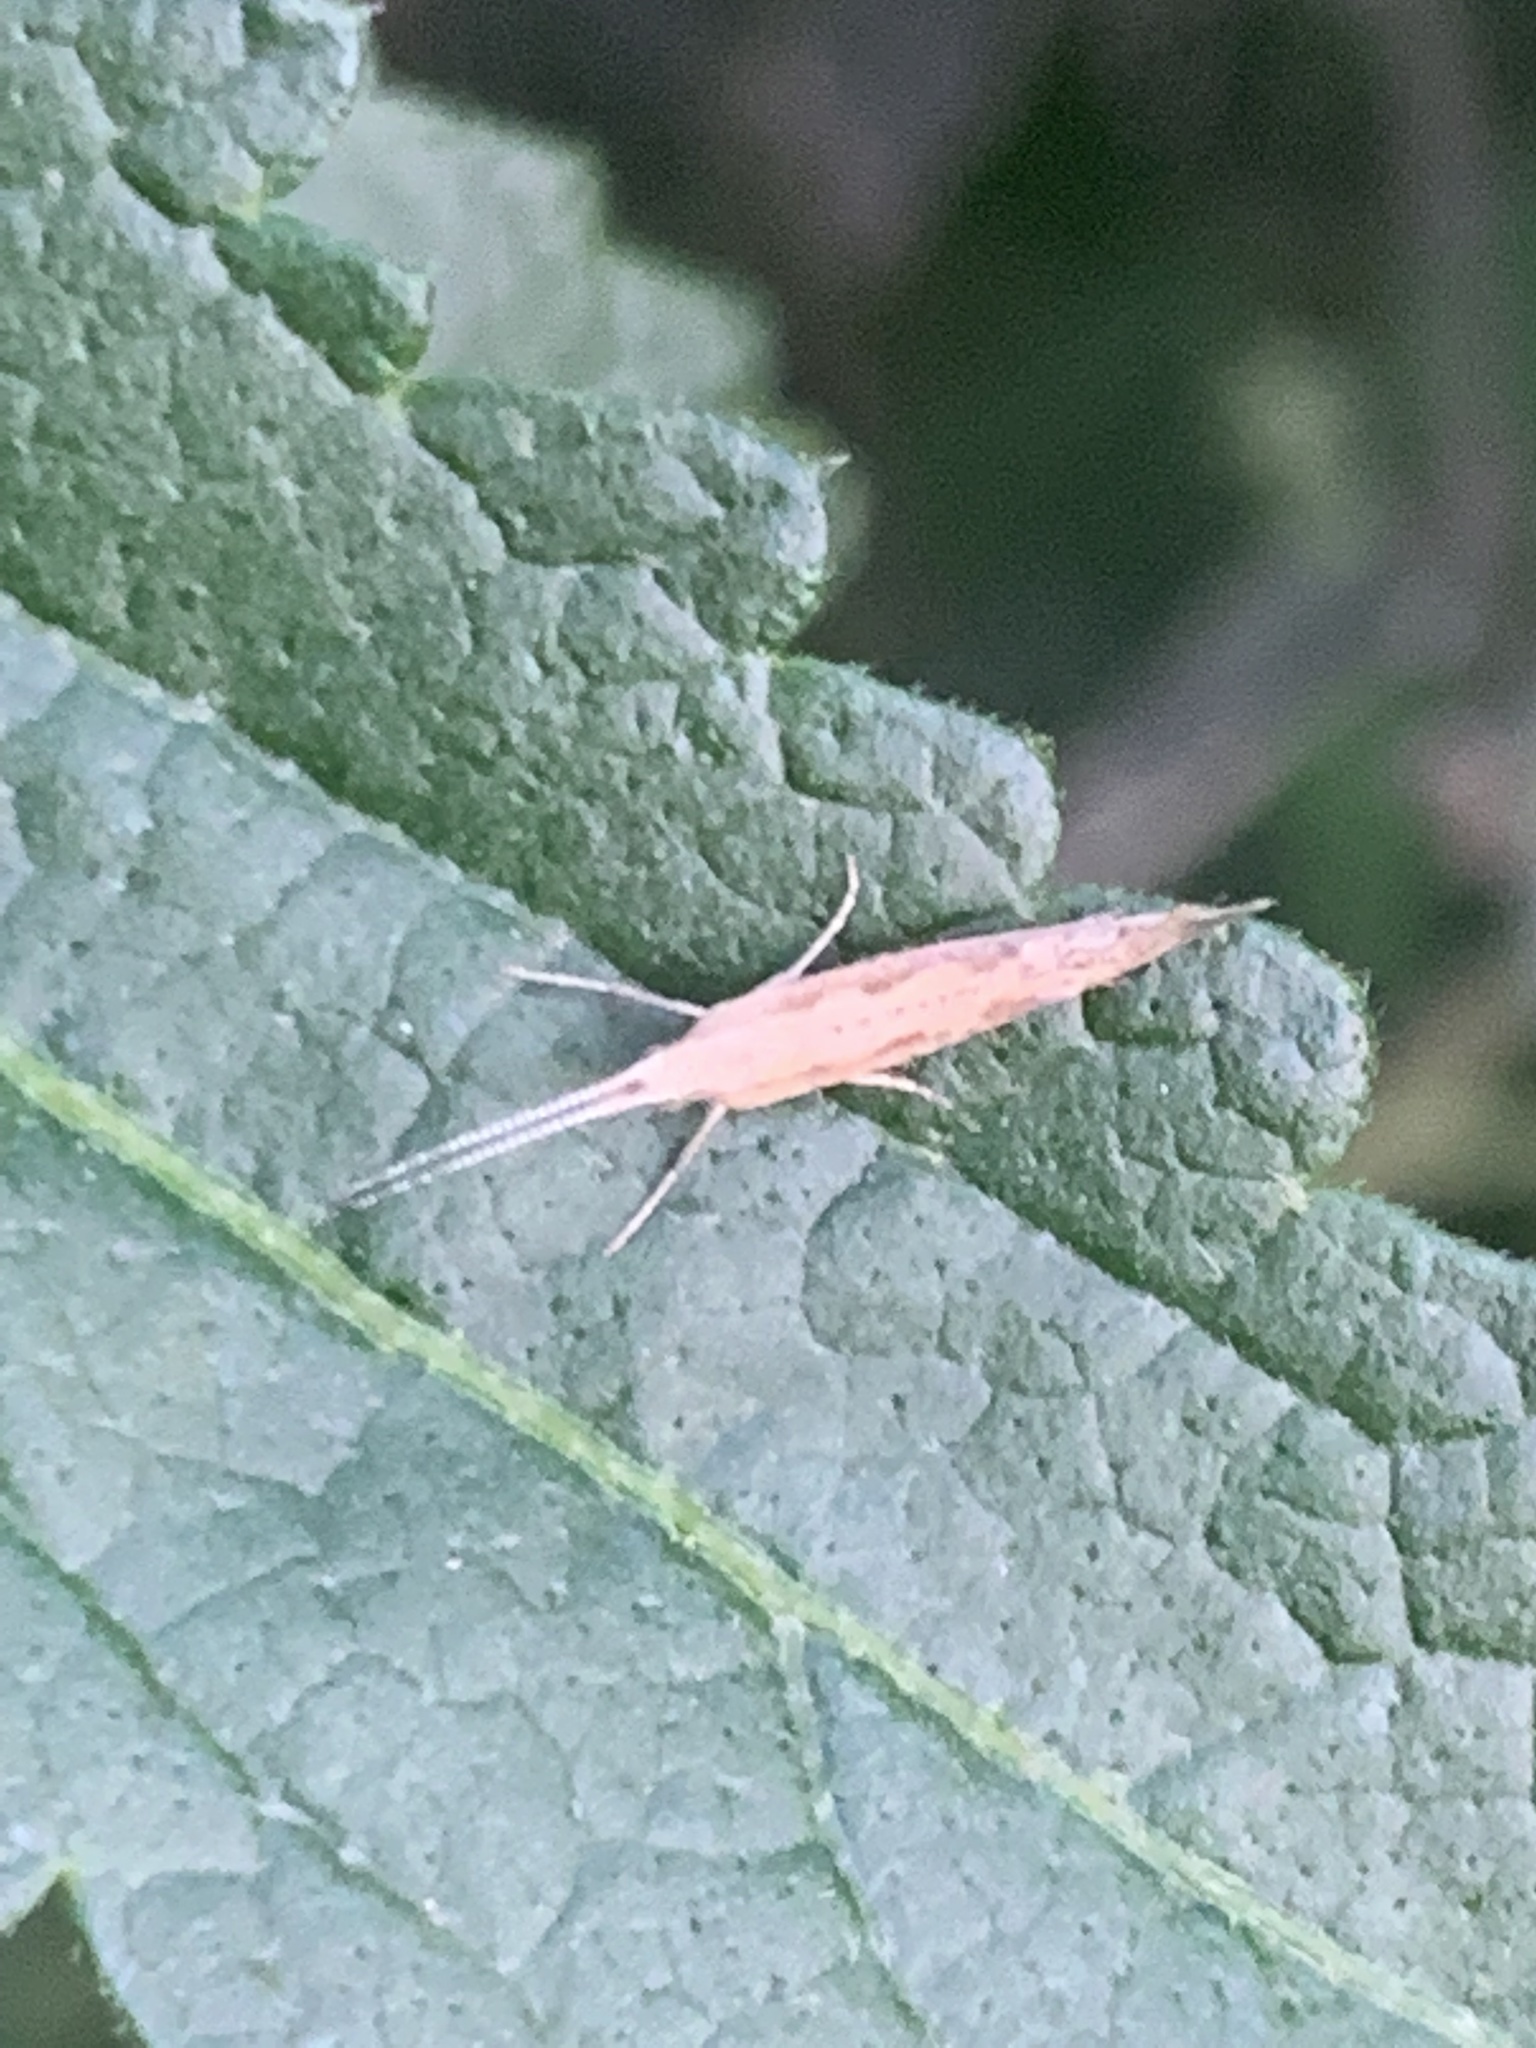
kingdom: Animalia
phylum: Arthropoda
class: Insecta
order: Lepidoptera
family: Plutellidae
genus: Plutella
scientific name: Plutella xylostella
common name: Diamond-back moth
